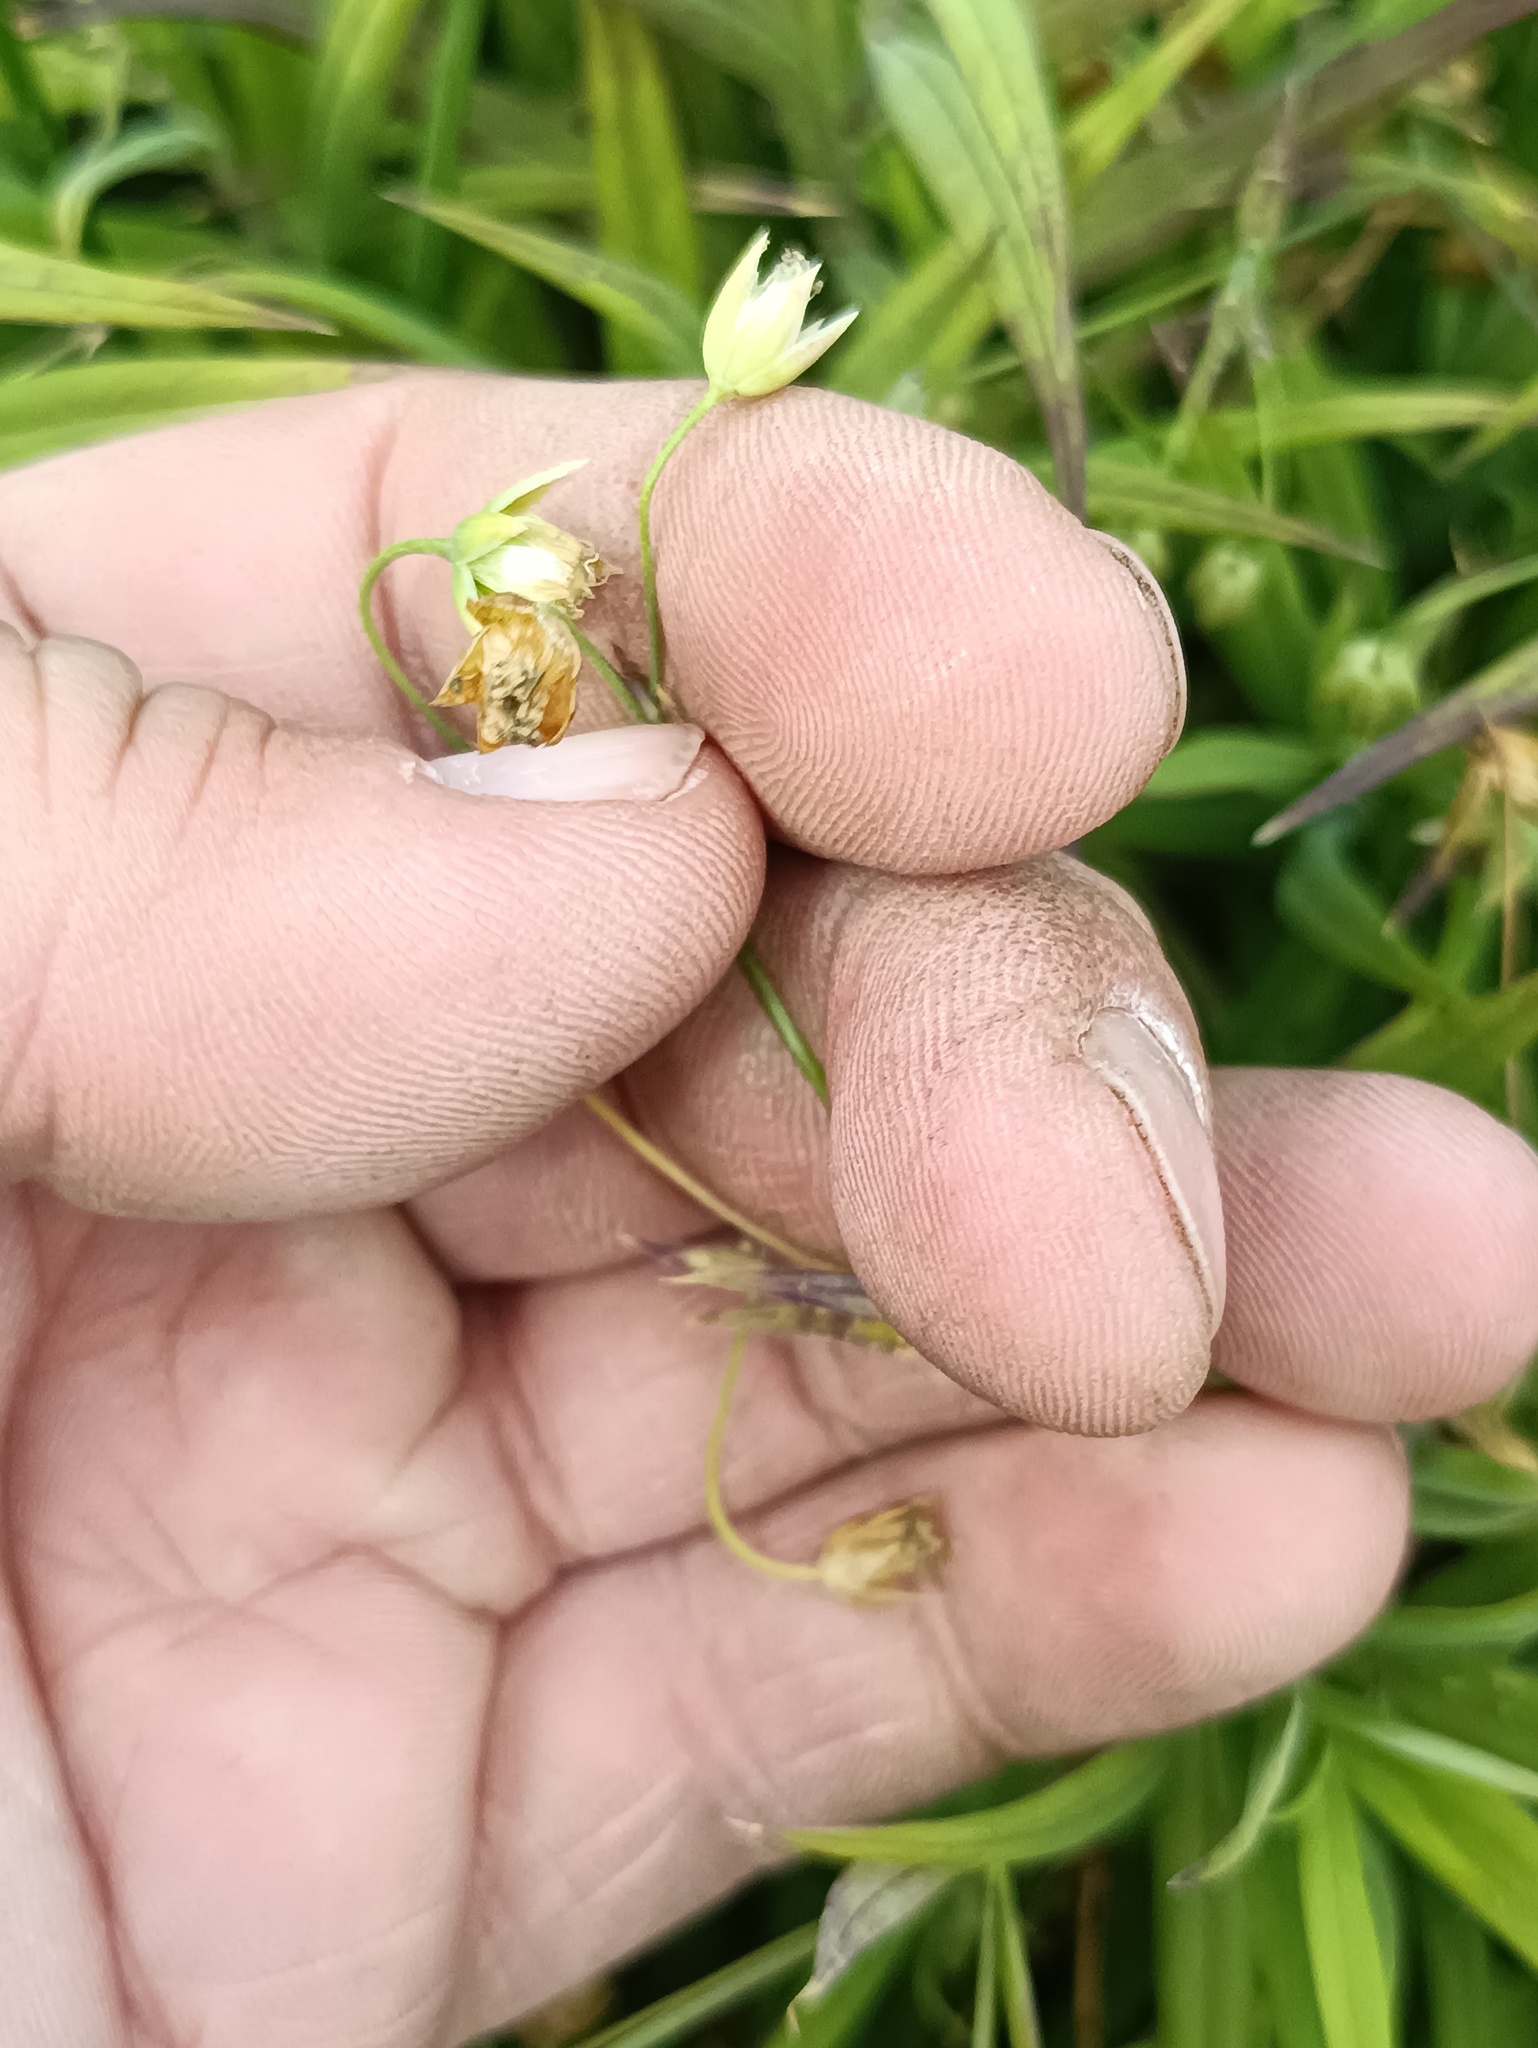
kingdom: Plantae
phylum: Tracheophyta
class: Magnoliopsida
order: Caryophyllales
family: Caryophyllaceae
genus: Rabelera
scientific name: Rabelera holostea
